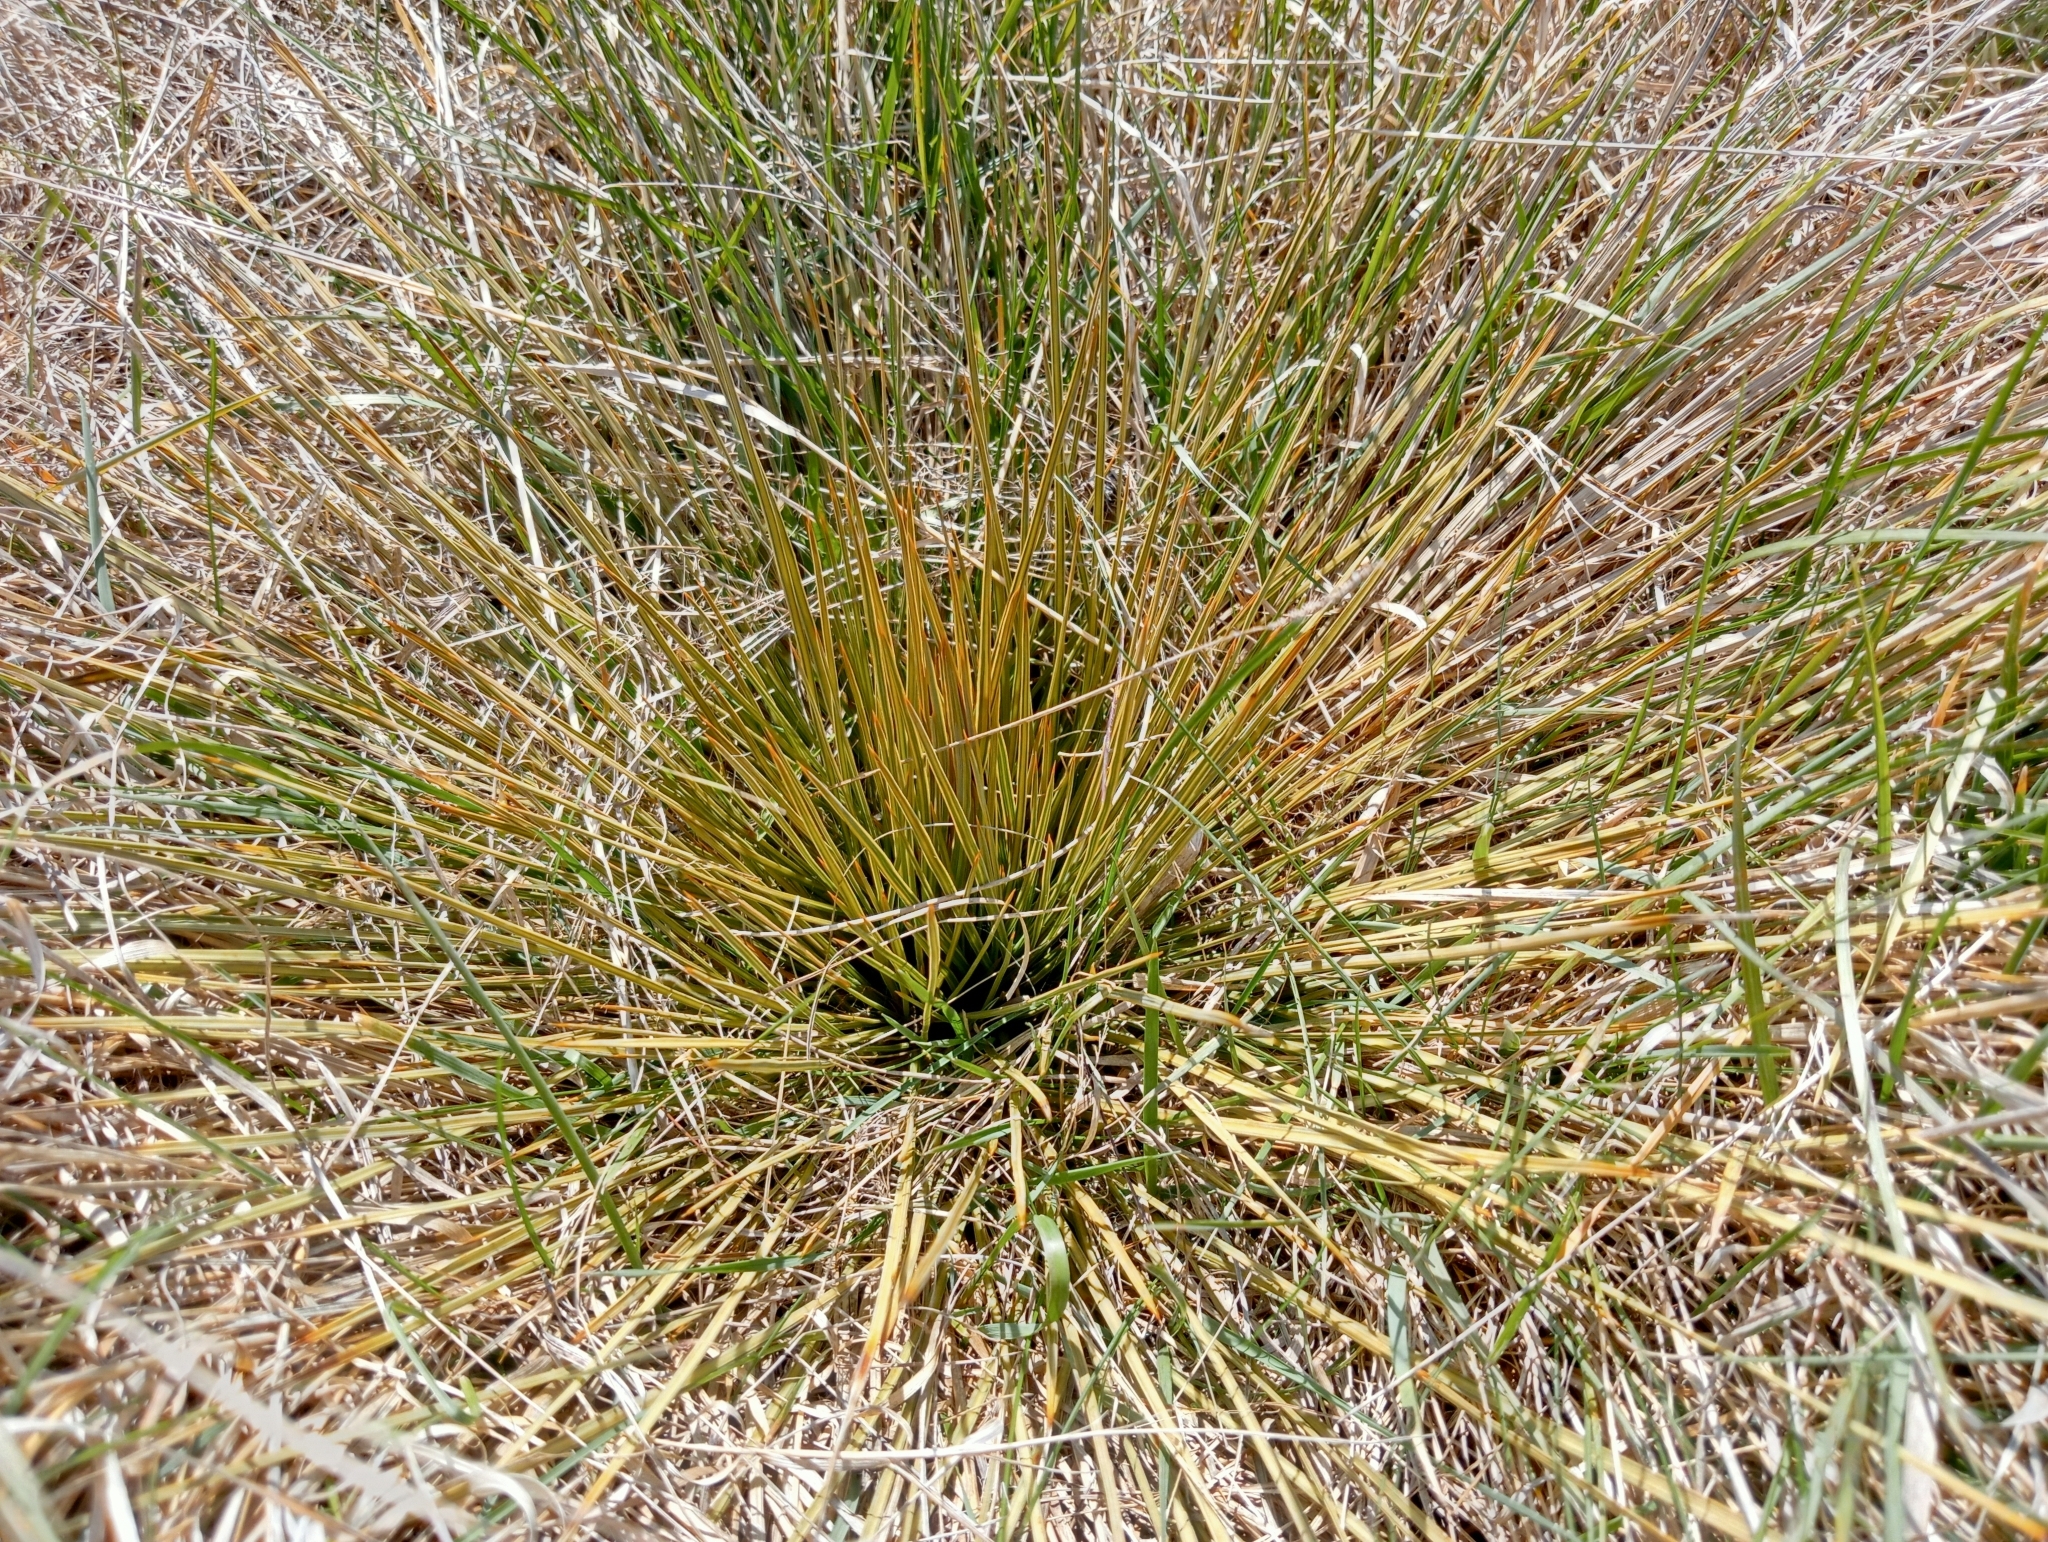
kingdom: Plantae
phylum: Tracheophyta
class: Magnoliopsida
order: Apiales
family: Apiaceae
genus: Aciphylla
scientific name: Aciphylla subflabellata
